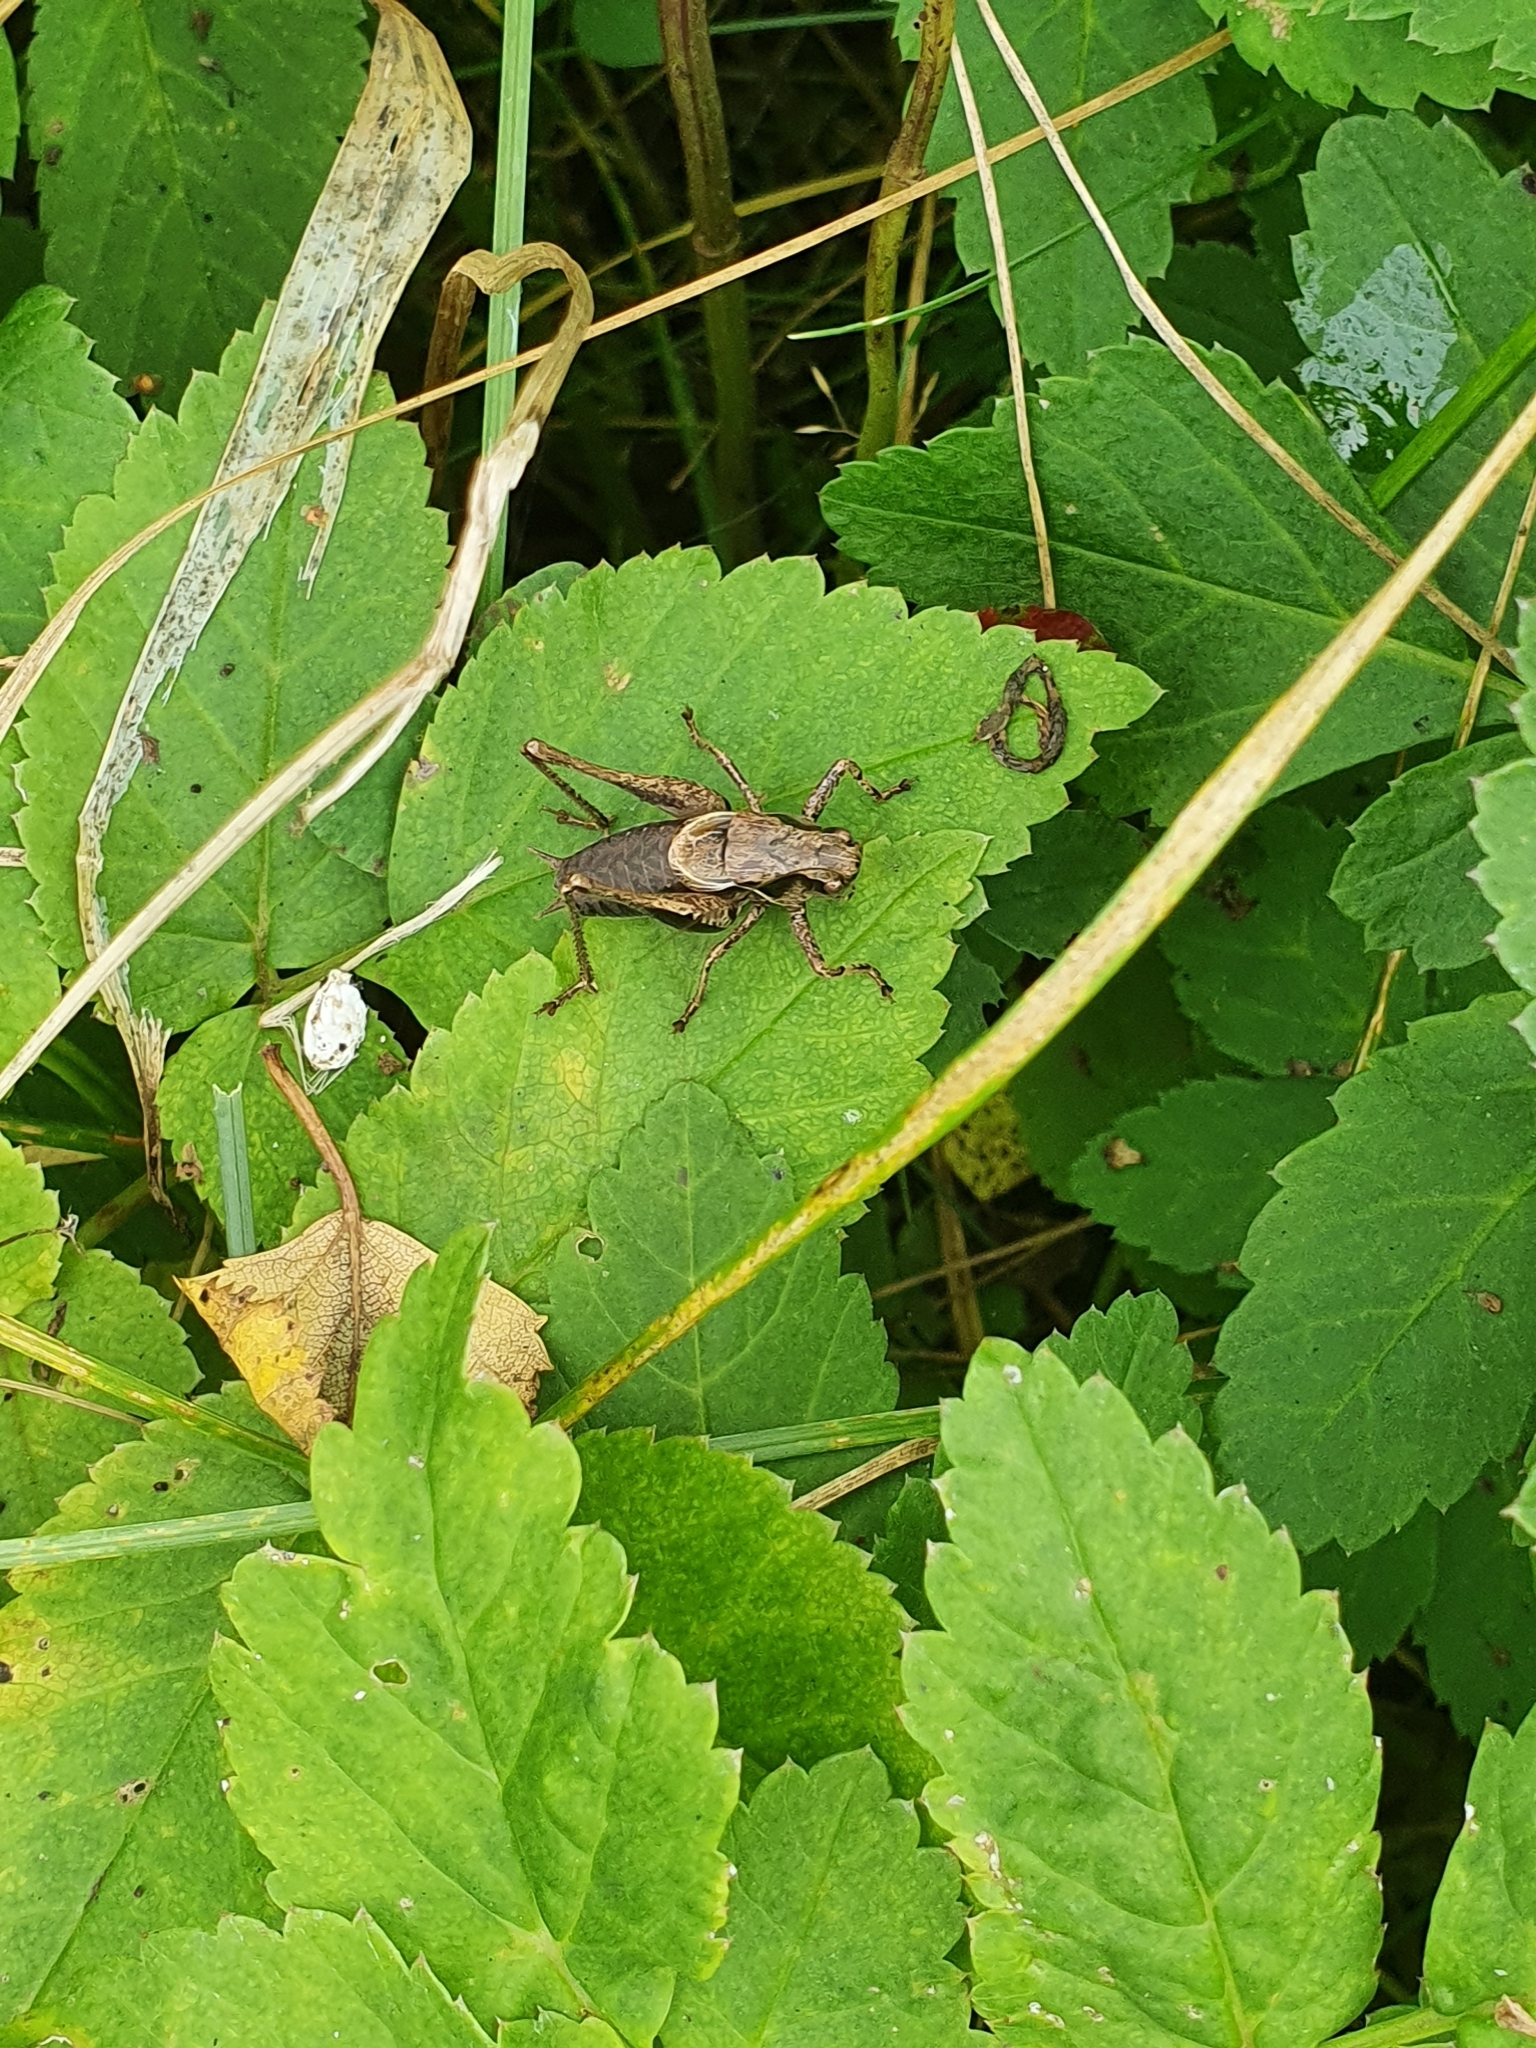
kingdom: Animalia
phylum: Arthropoda
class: Insecta
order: Orthoptera
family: Tettigoniidae
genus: Pholidoptera
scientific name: Pholidoptera griseoaptera
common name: Dark bush-cricket
